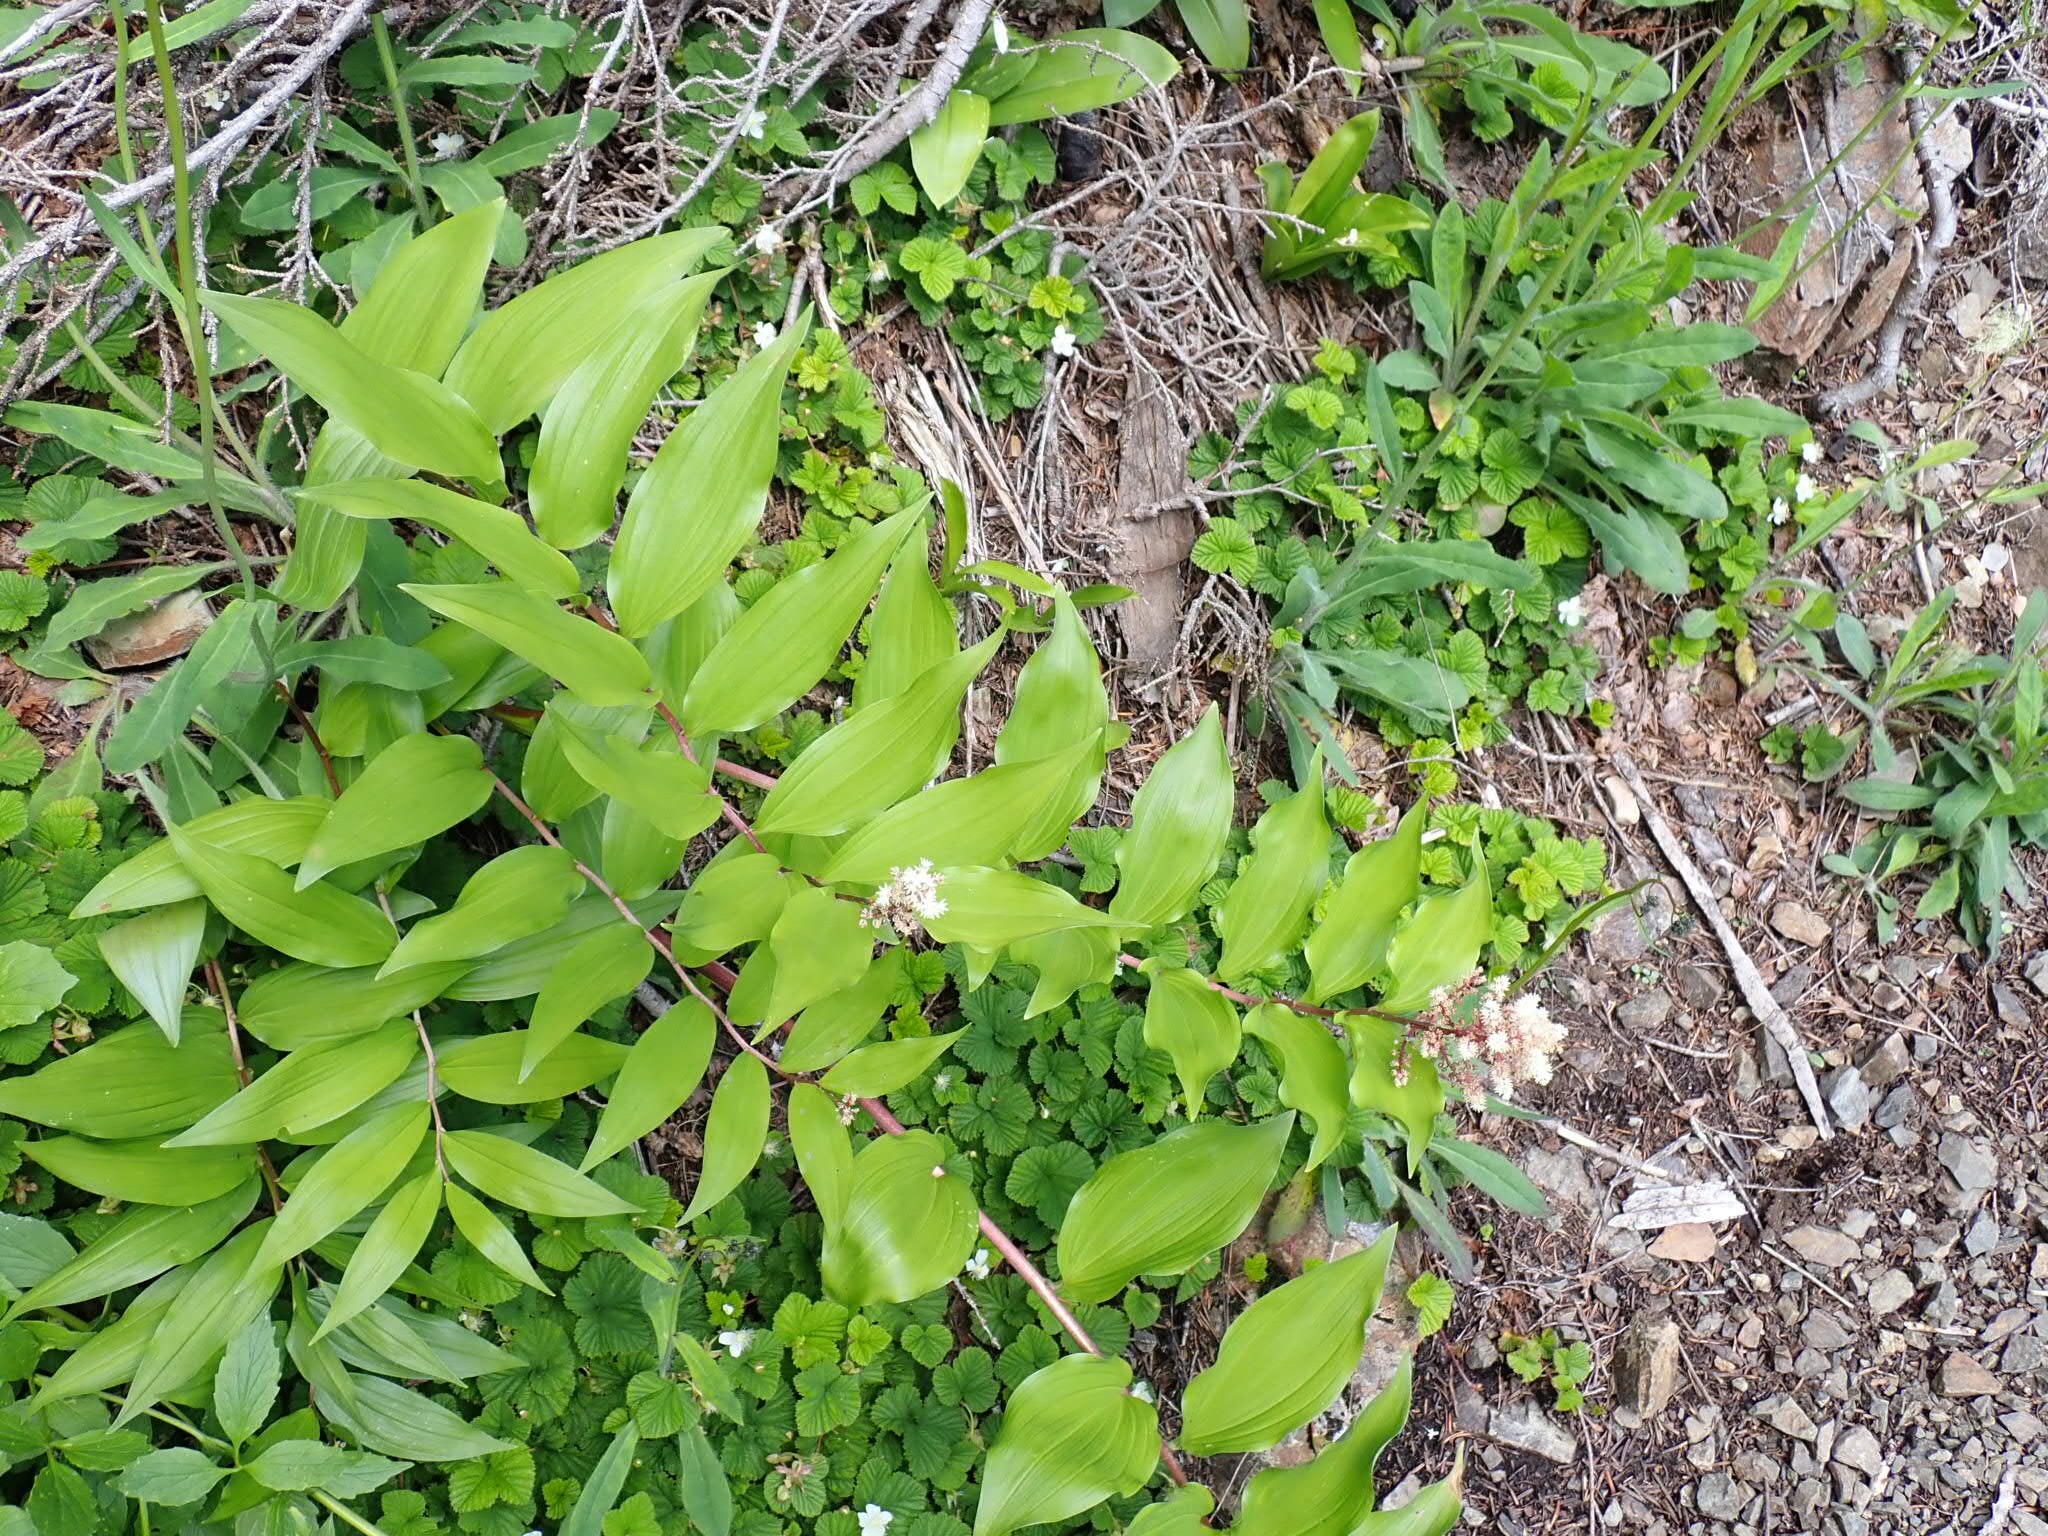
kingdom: Plantae
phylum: Tracheophyta
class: Liliopsida
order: Asparagales
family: Asparagaceae
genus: Maianthemum
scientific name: Maianthemum racemosum
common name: False spikenard
